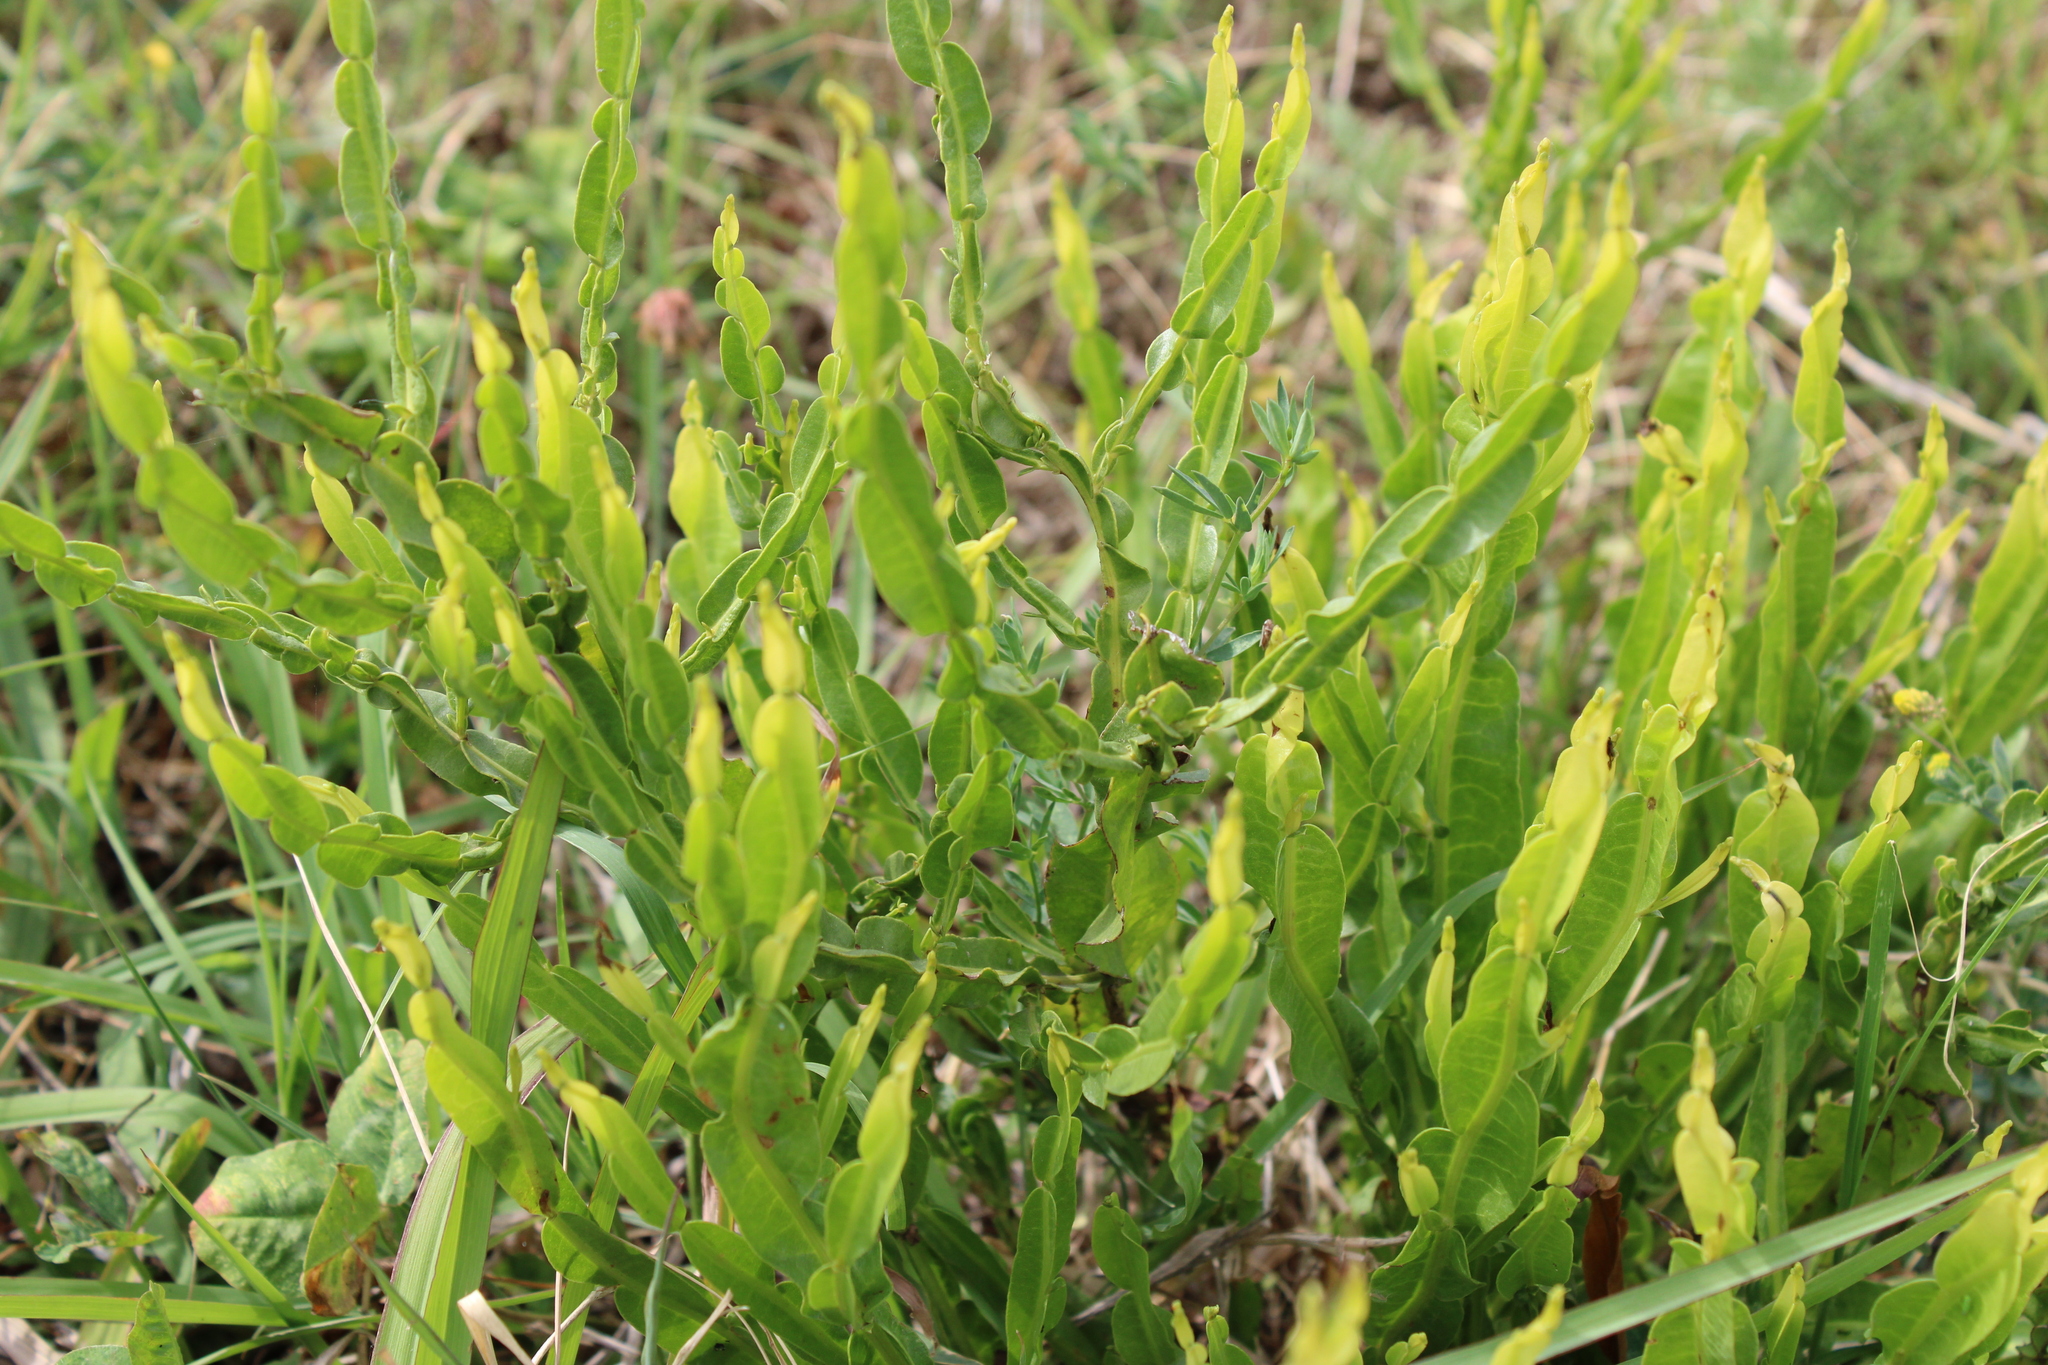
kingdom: Plantae
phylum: Tracheophyta
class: Magnoliopsida
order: Asterales
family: Asteraceae
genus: Baccharis
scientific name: Baccharis trimera
